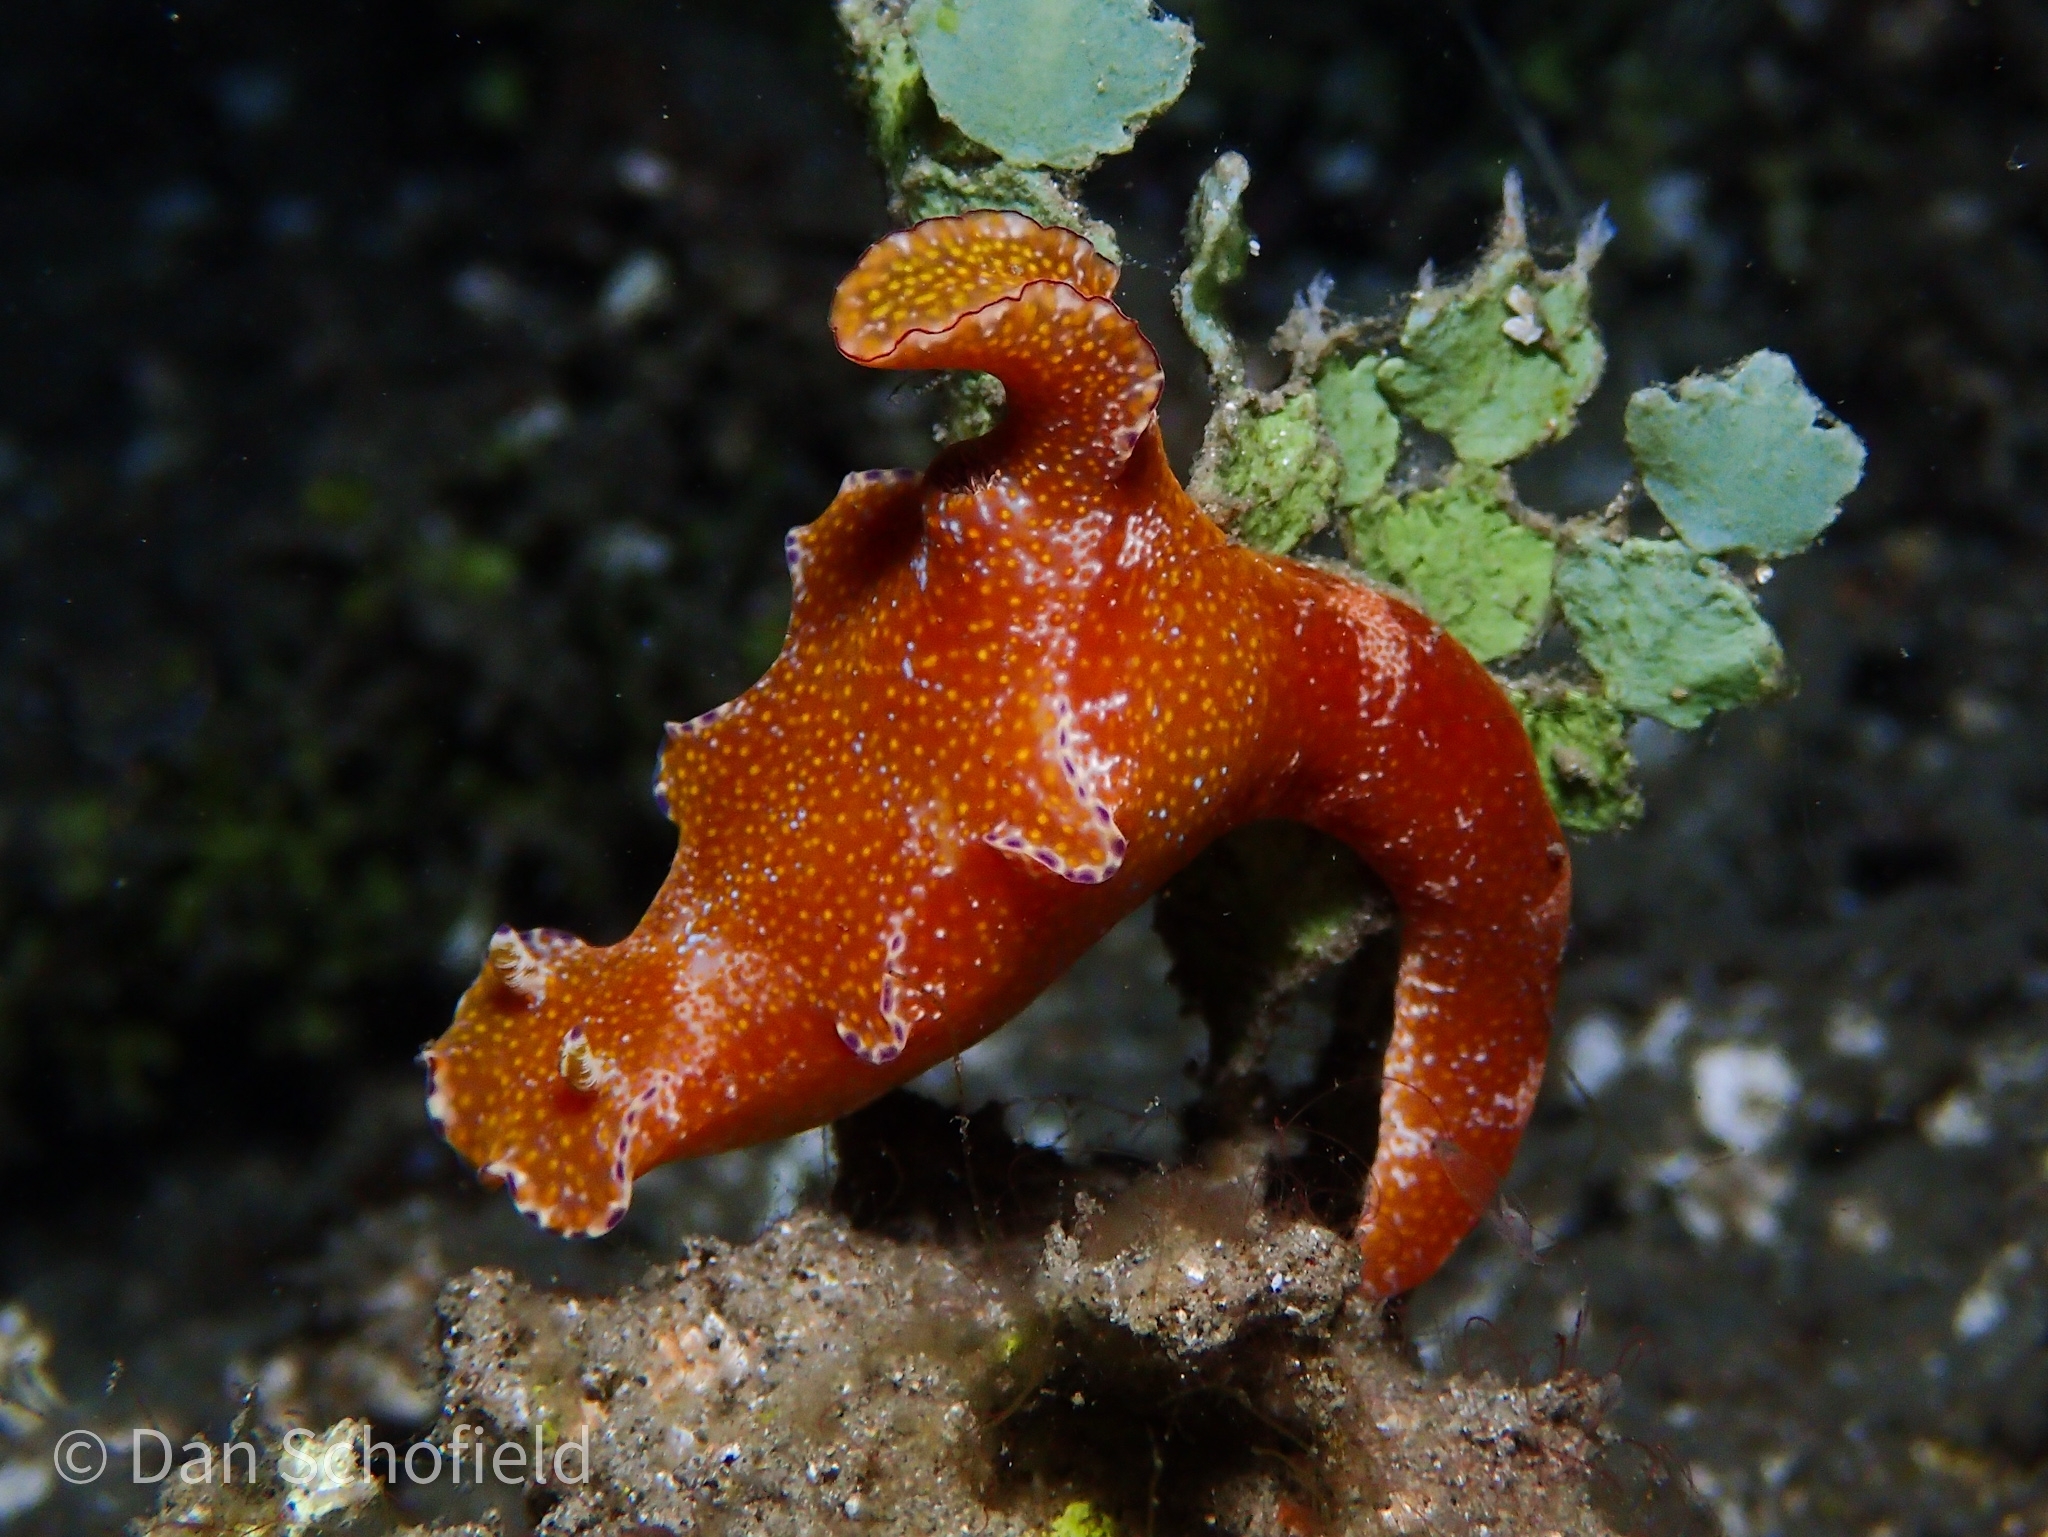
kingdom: Animalia
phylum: Mollusca
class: Gastropoda
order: Nudibranchia
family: Chromodorididae
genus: Ceratosoma
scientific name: Ceratosoma tenue
